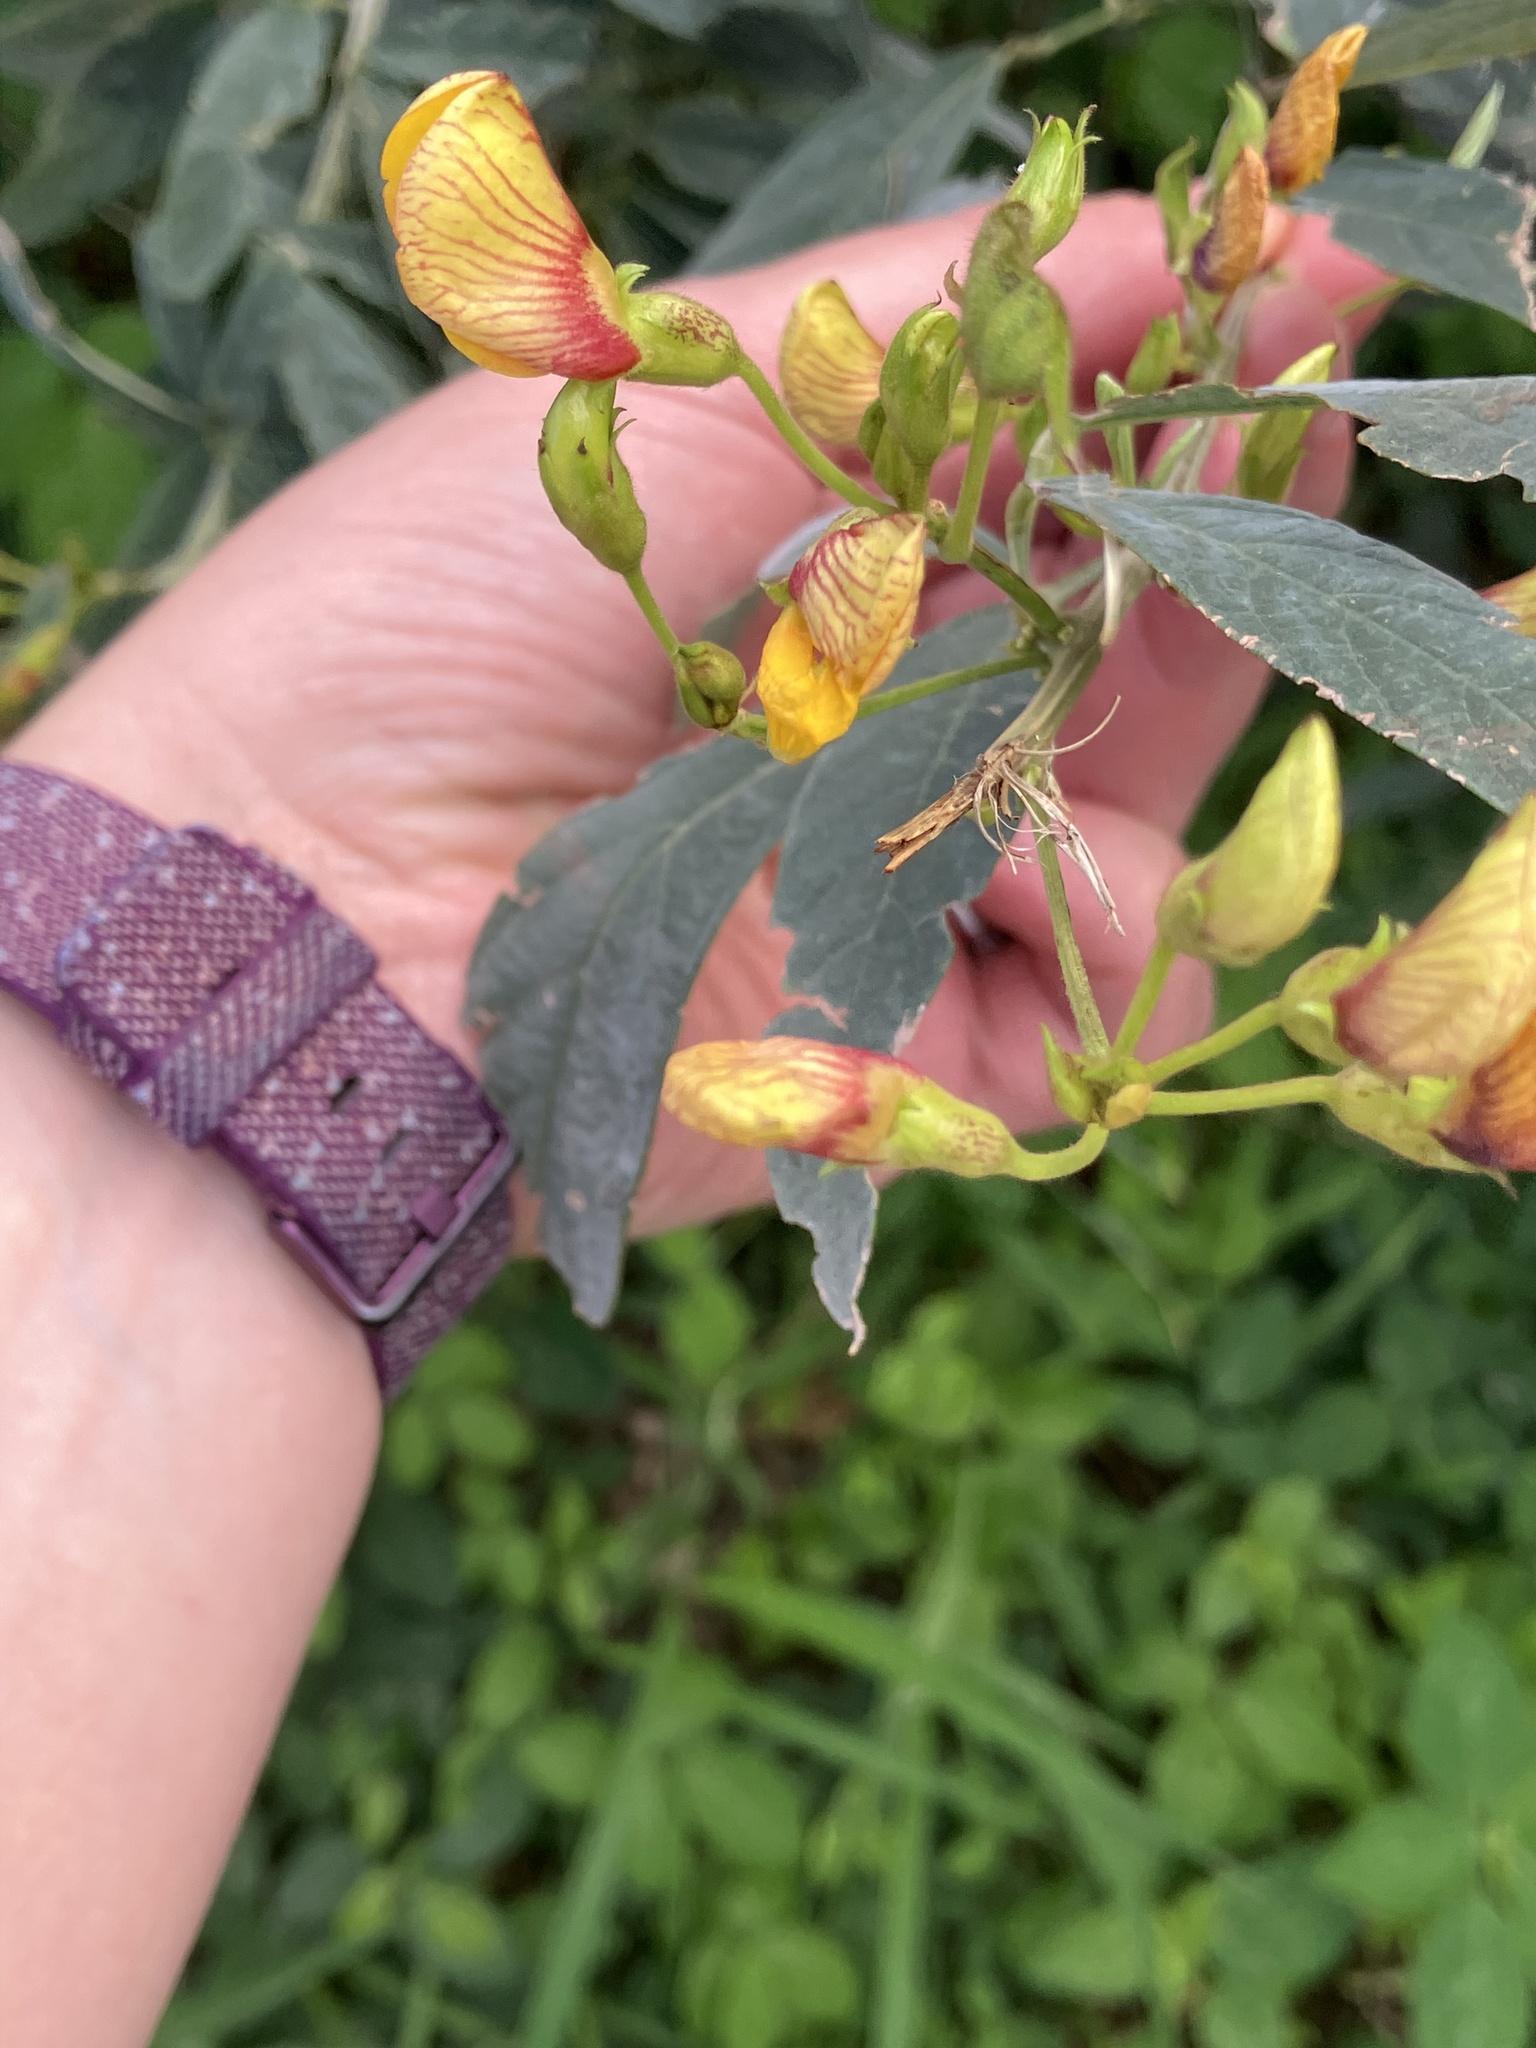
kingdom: Plantae
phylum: Tracheophyta
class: Magnoliopsida
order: Fabales
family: Fabaceae
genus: Cajanus
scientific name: Cajanus cajan
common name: Pigeonpea
